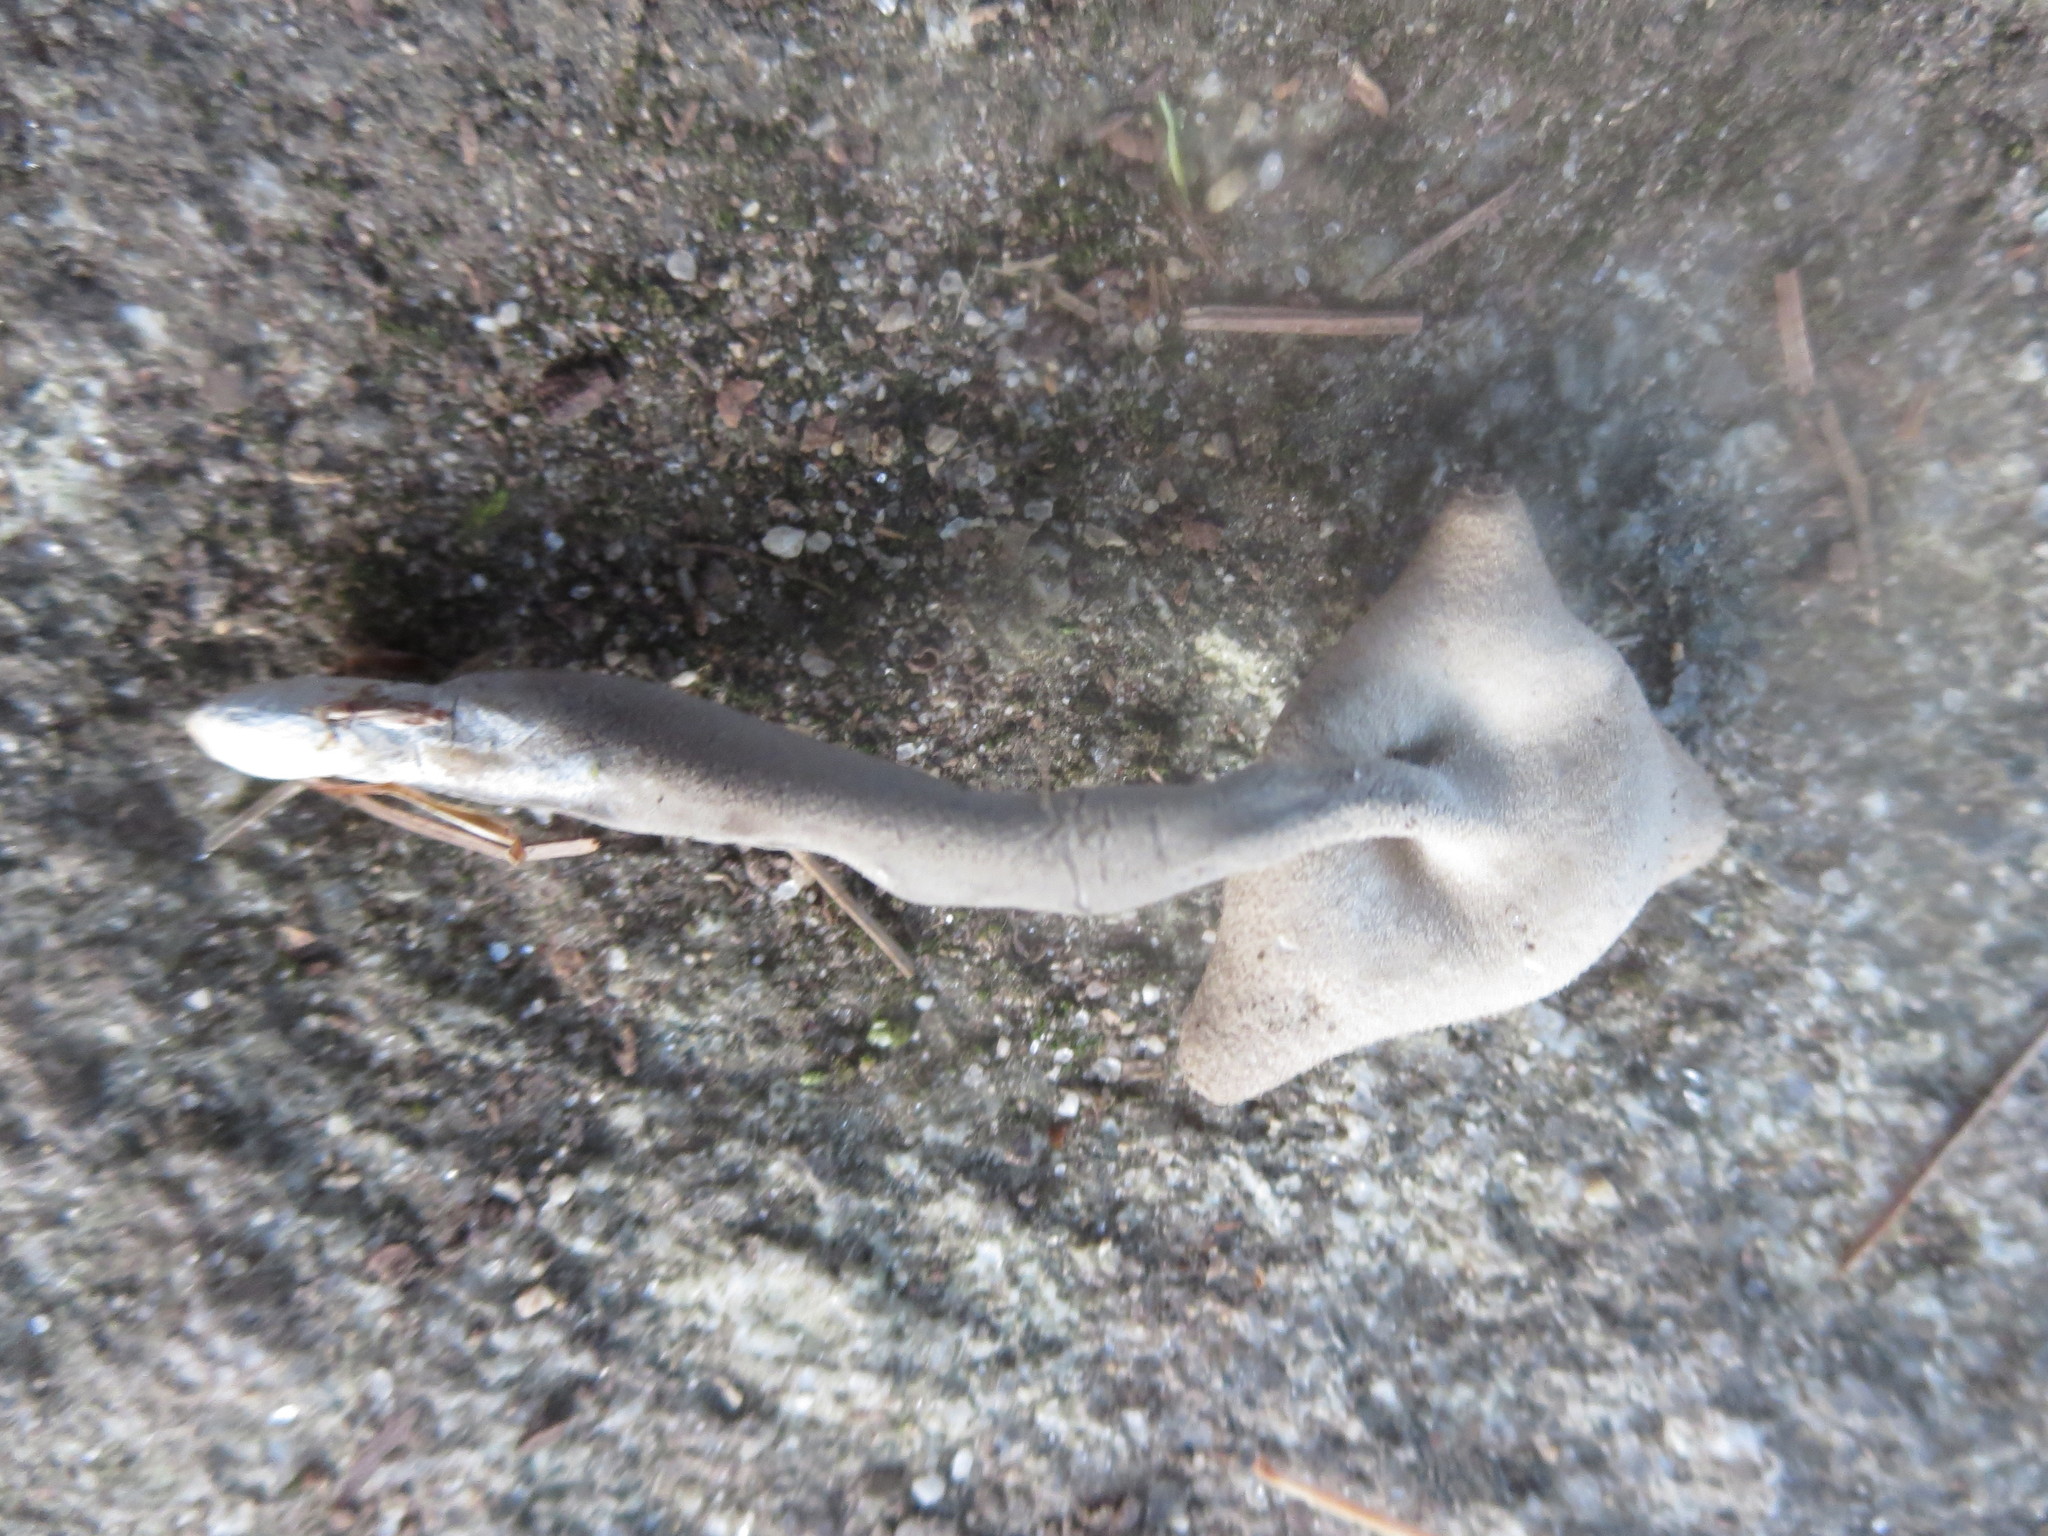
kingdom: Fungi
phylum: Ascomycota
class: Pezizomycetes
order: Pezizales
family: Helvellaceae
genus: Helvella
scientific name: Helvella macropus
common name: Felt saddle
